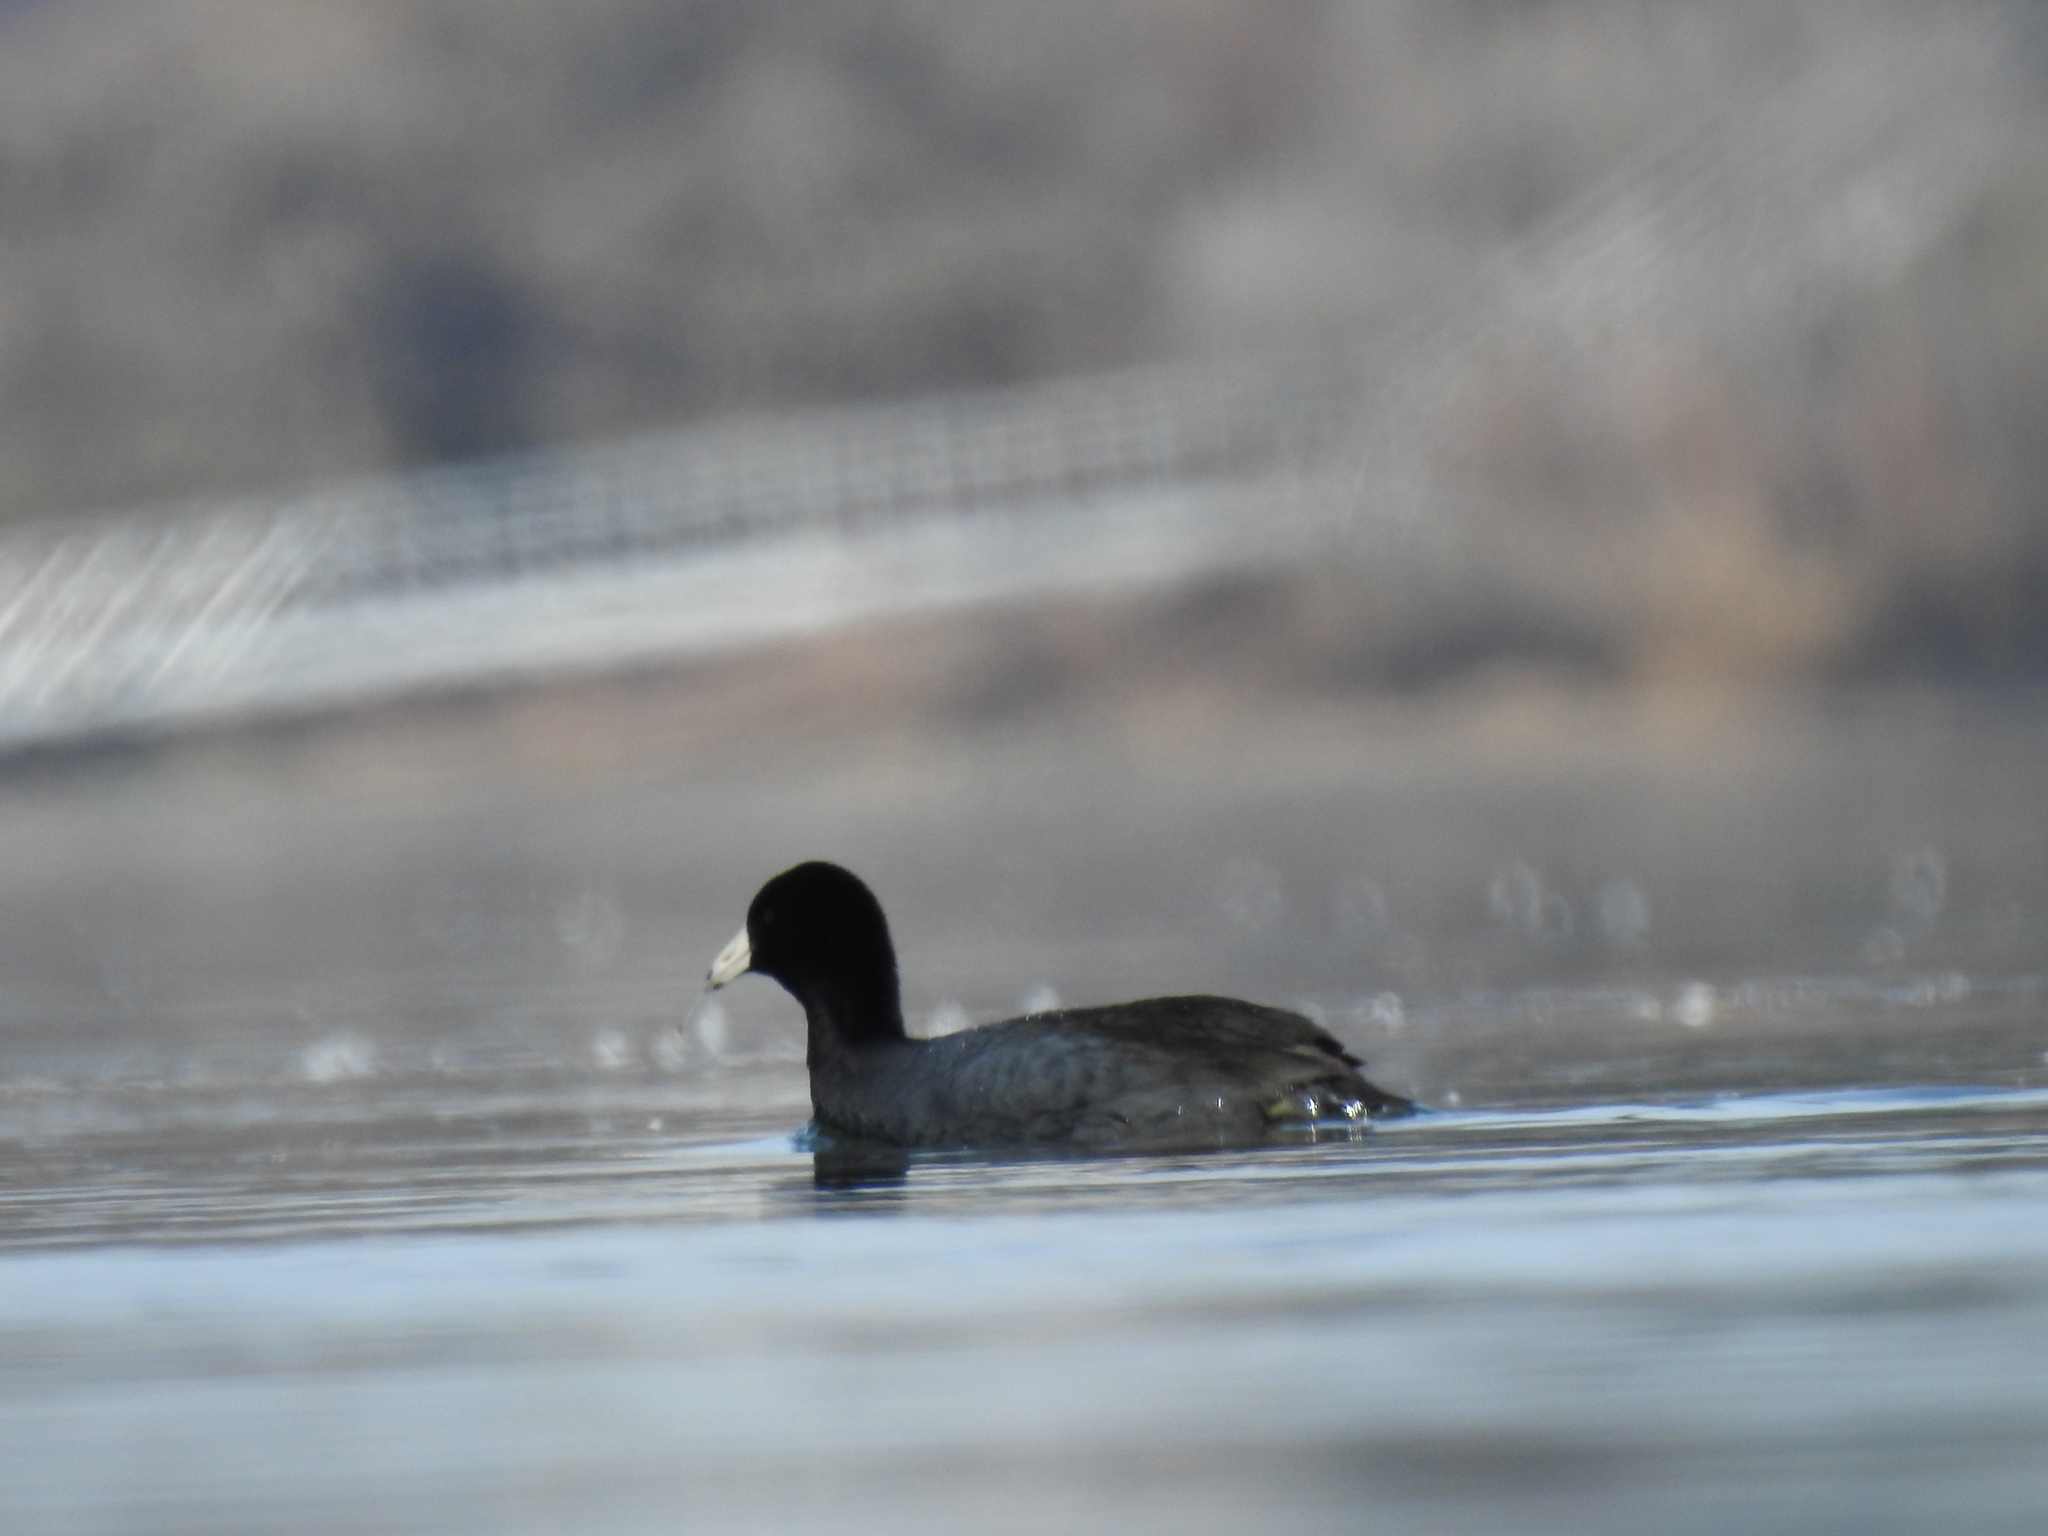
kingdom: Animalia
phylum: Chordata
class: Aves
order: Gruiformes
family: Rallidae
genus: Fulica
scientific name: Fulica americana
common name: American coot
